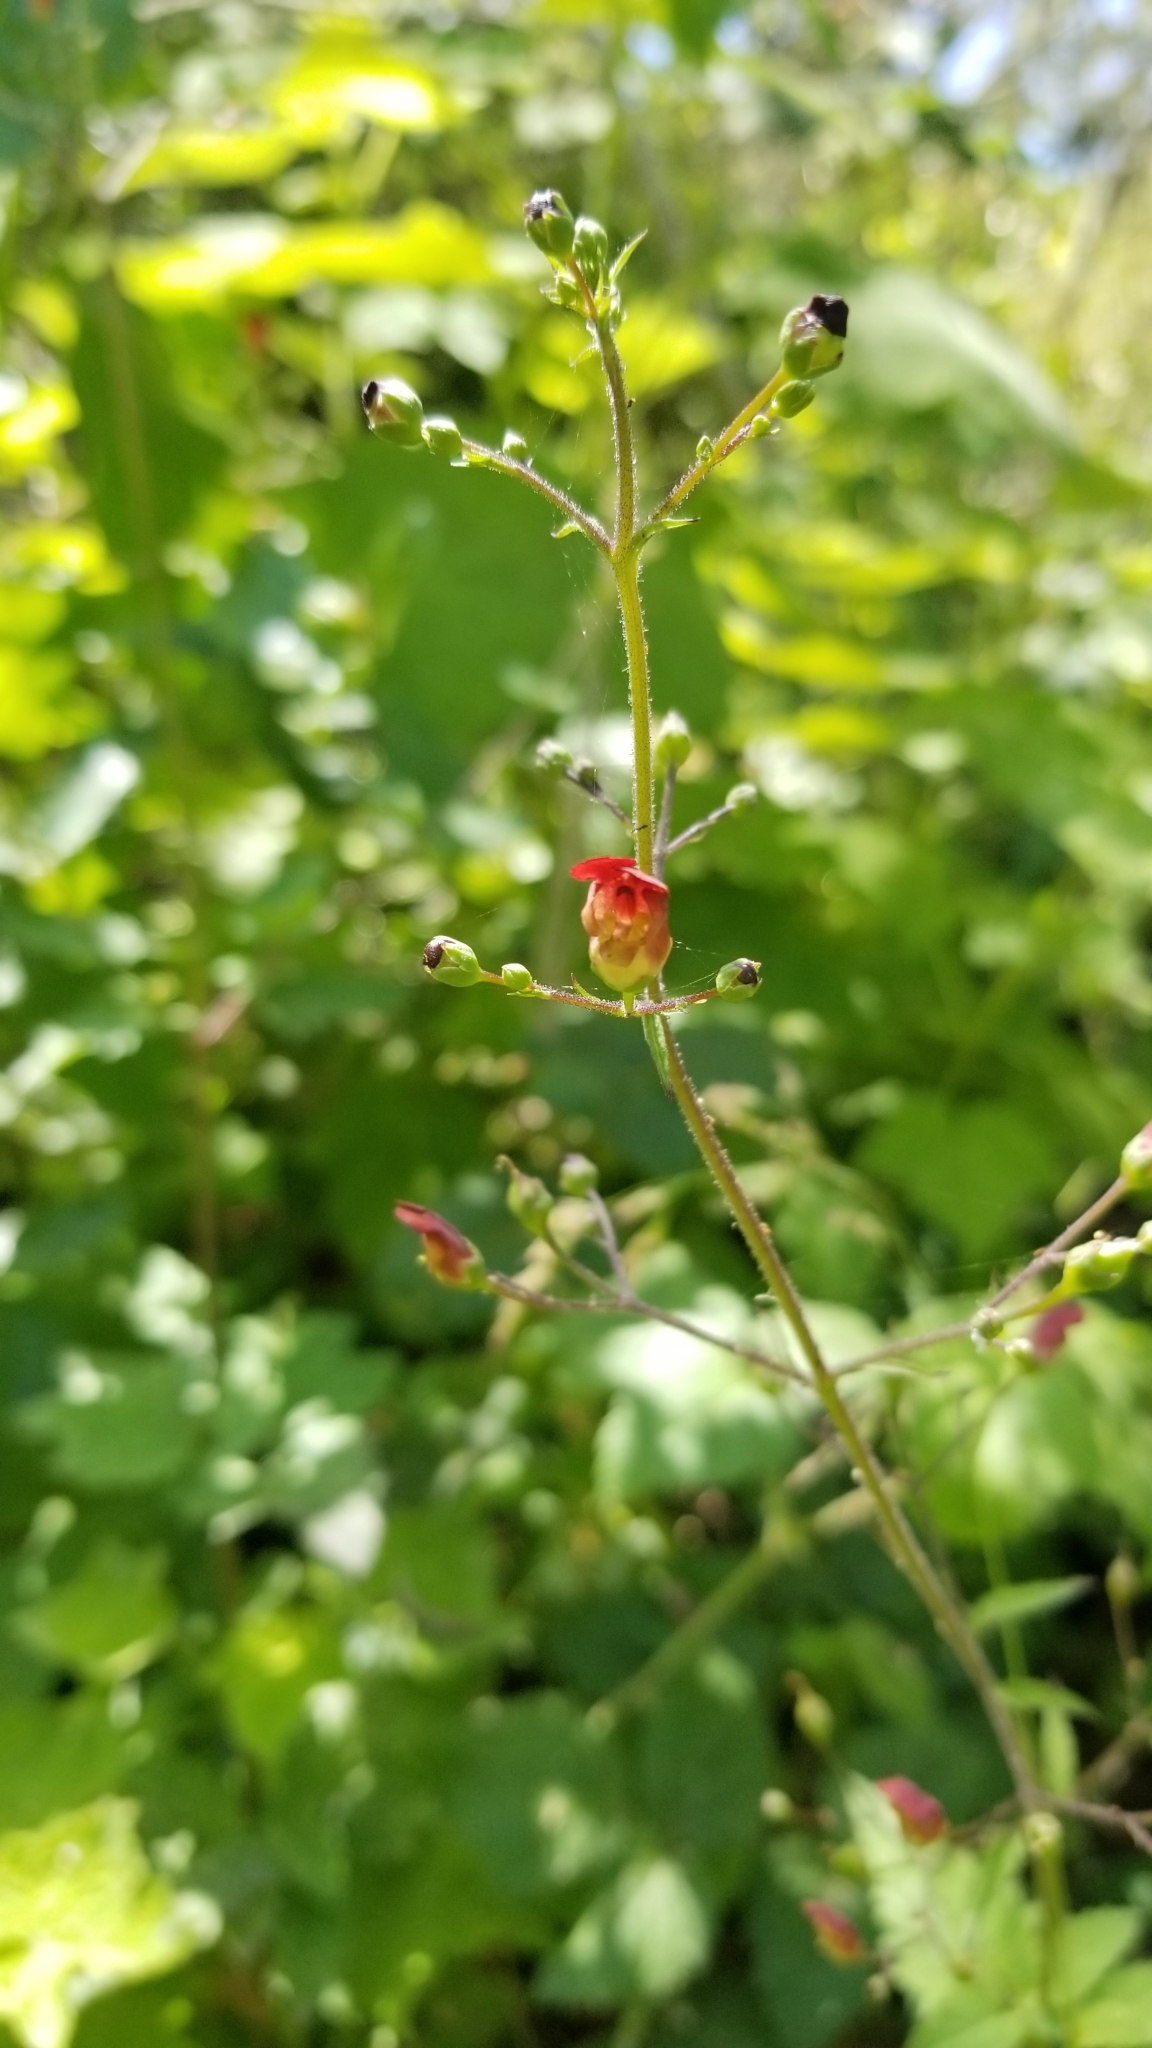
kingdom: Plantae
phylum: Tracheophyta
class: Magnoliopsida
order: Lamiales
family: Scrophulariaceae
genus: Scrophularia
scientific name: Scrophularia californica
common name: California figwort
